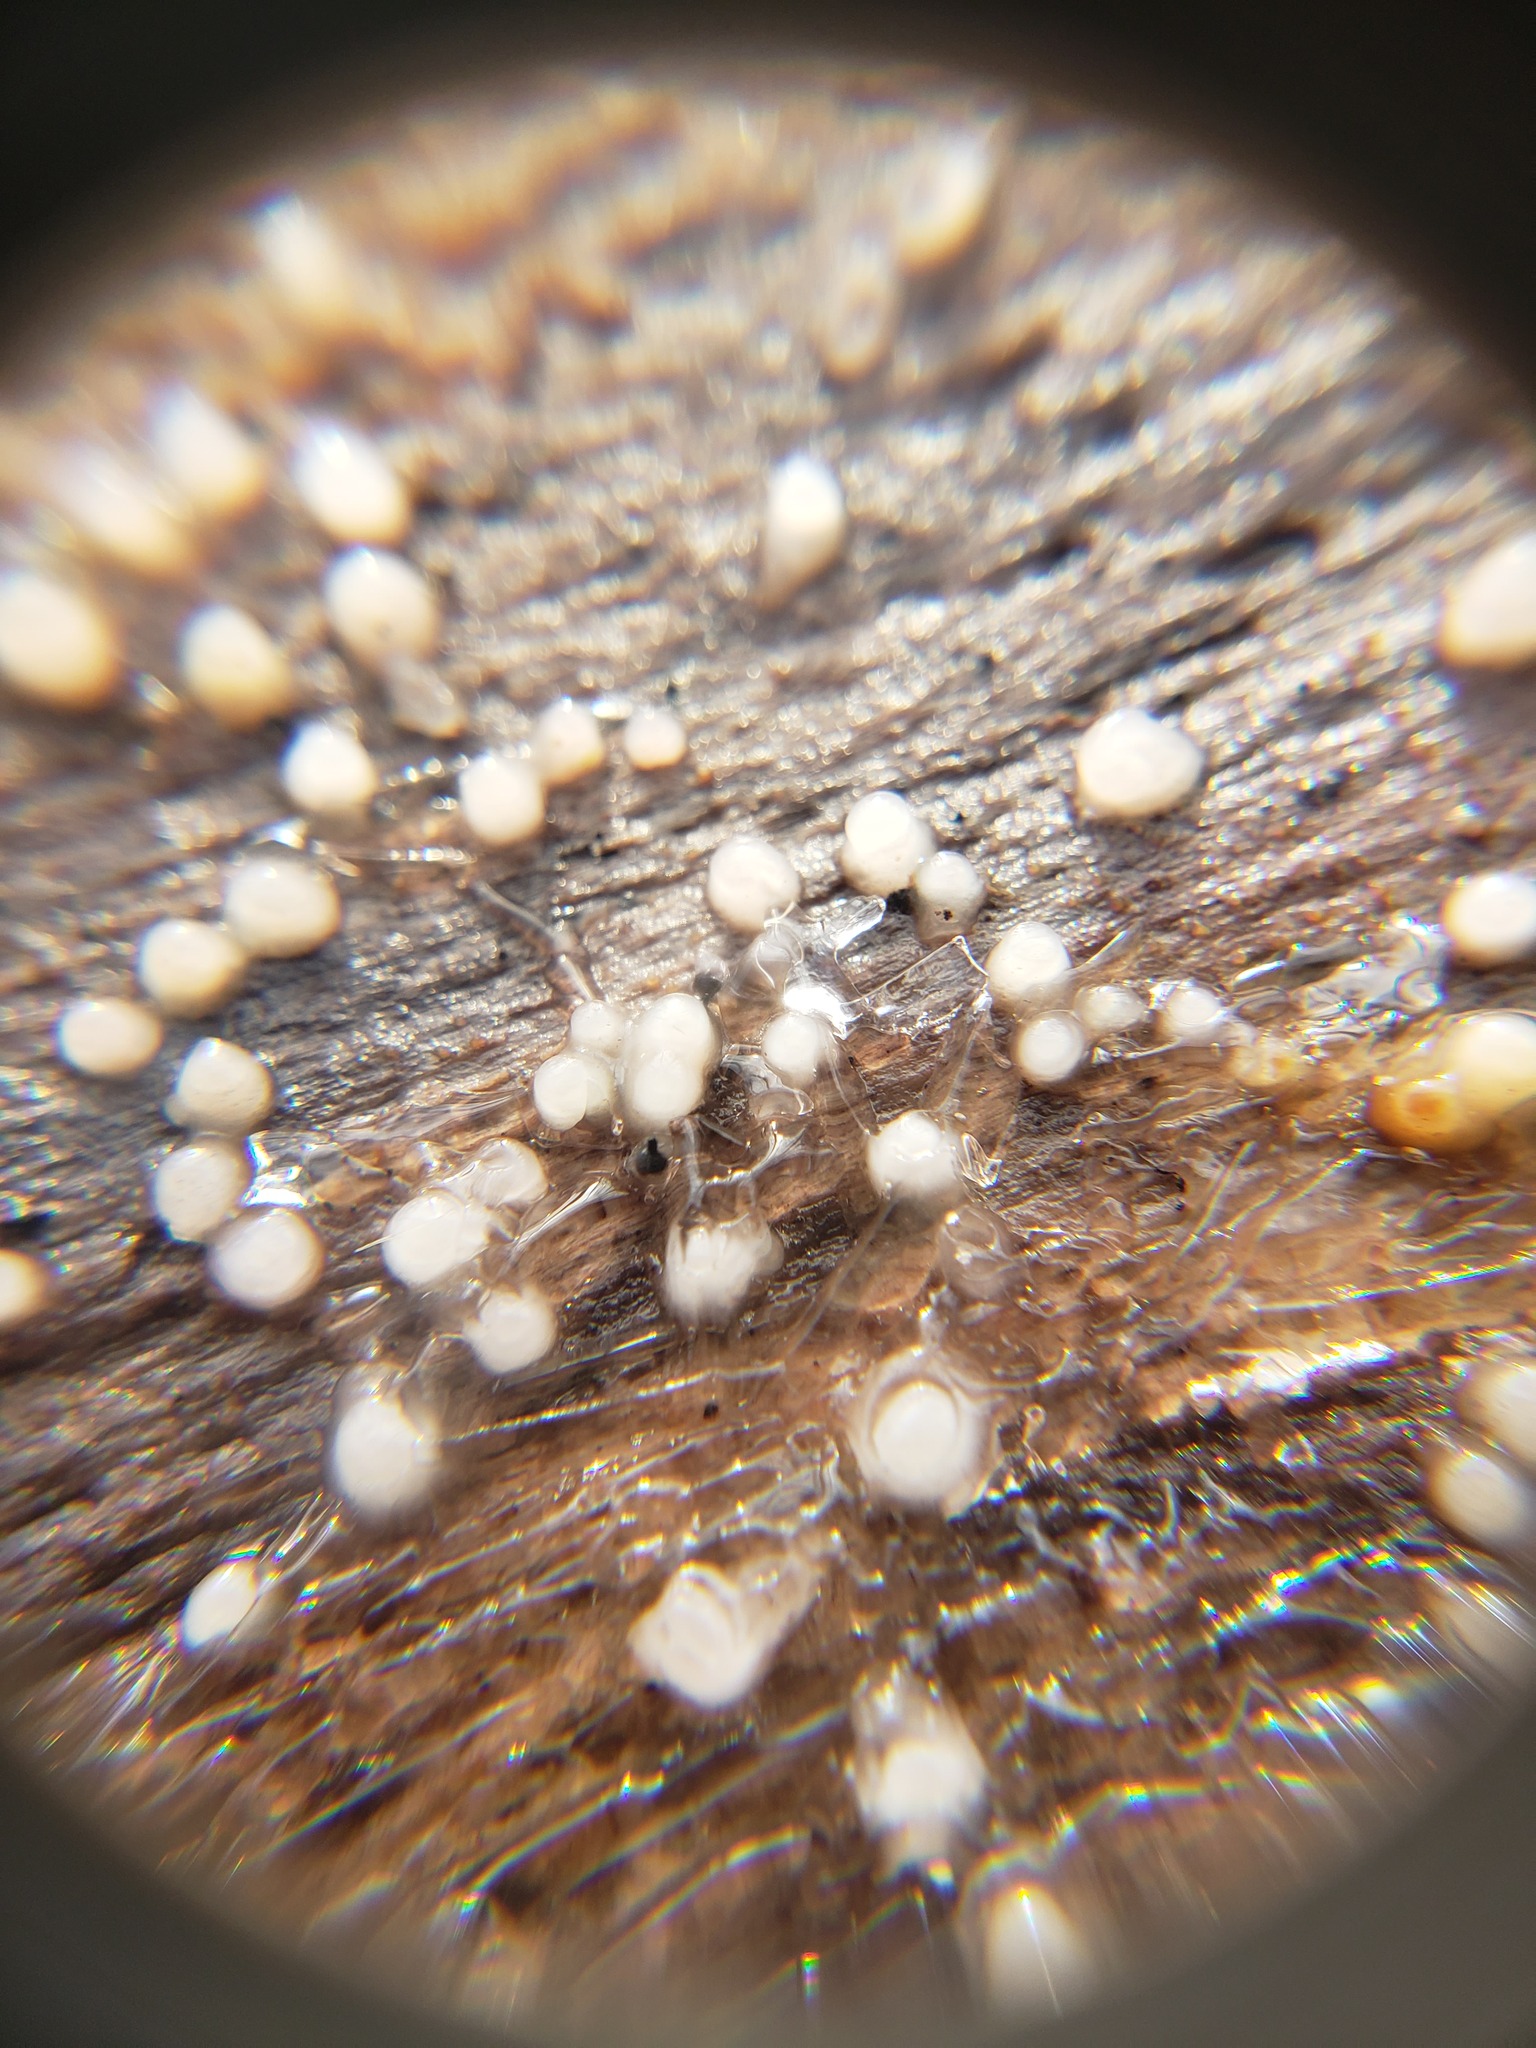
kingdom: Fungi
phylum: Basidiomycota
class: Atractiellomycetes
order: Atractiellales
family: Phleogenaceae
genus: Helicogloea
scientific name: Helicogloea compressa
